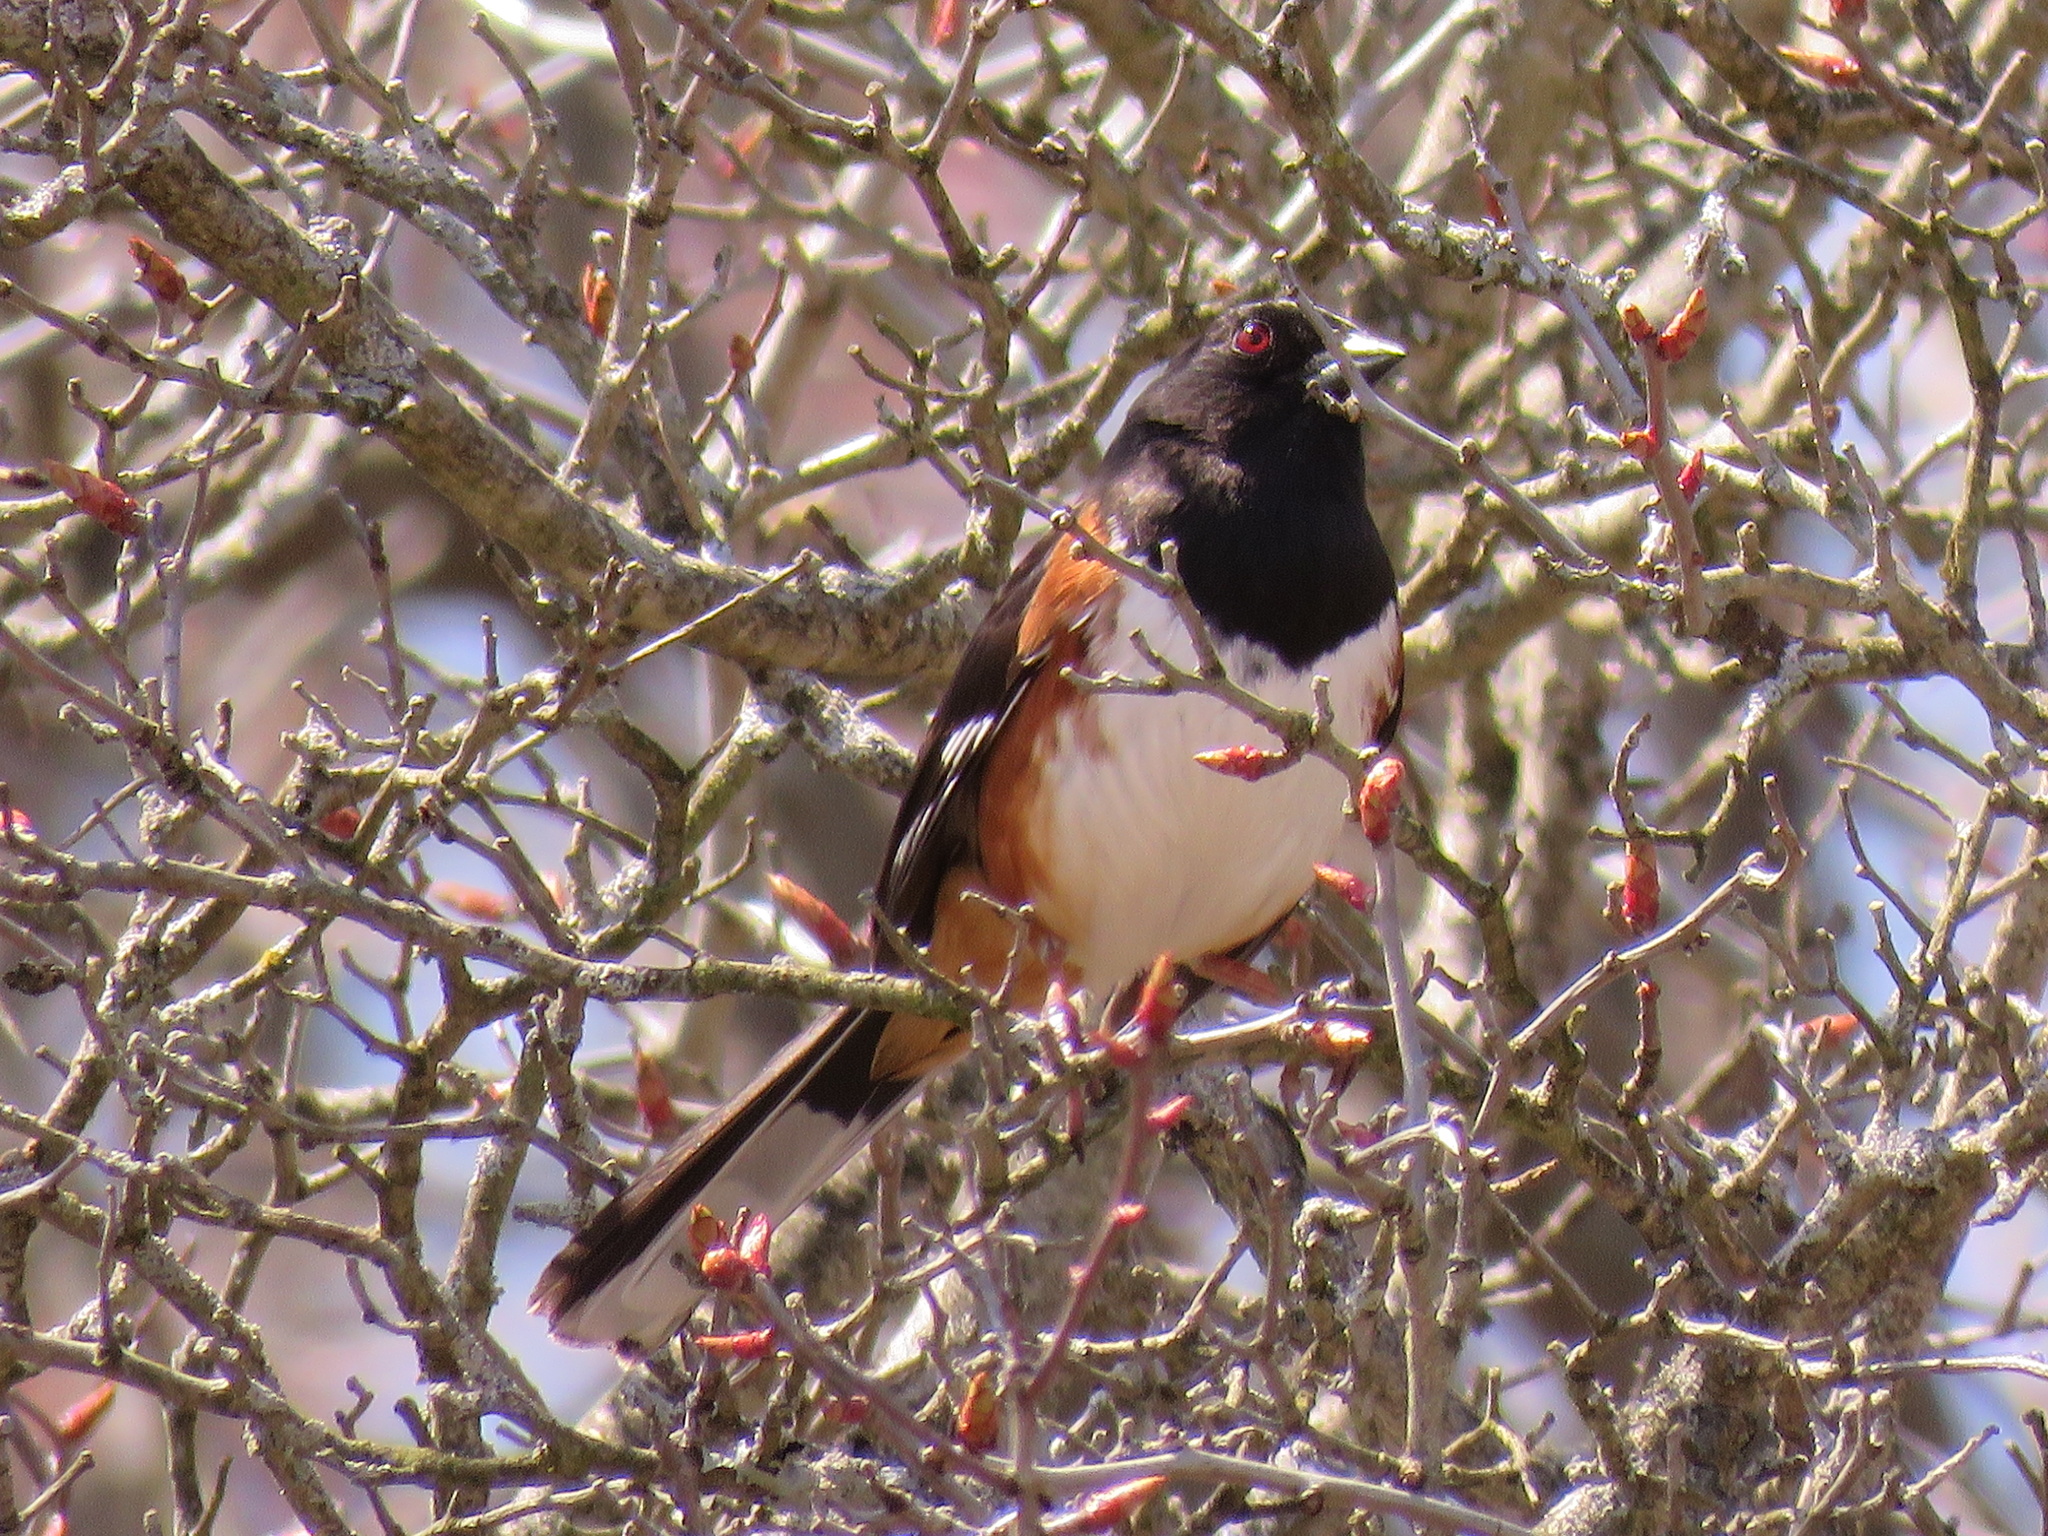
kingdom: Animalia
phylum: Chordata
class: Aves
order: Passeriformes
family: Passerellidae
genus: Pipilo
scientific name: Pipilo erythrophthalmus
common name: Eastern towhee
